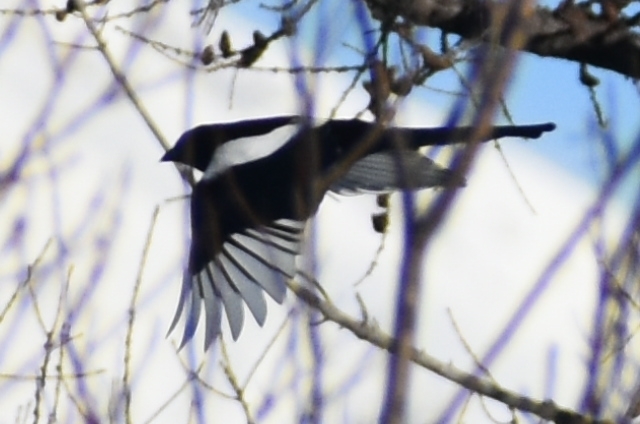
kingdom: Animalia
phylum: Chordata
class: Aves
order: Passeriformes
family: Corvidae
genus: Pica
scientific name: Pica pica
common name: Eurasian magpie
